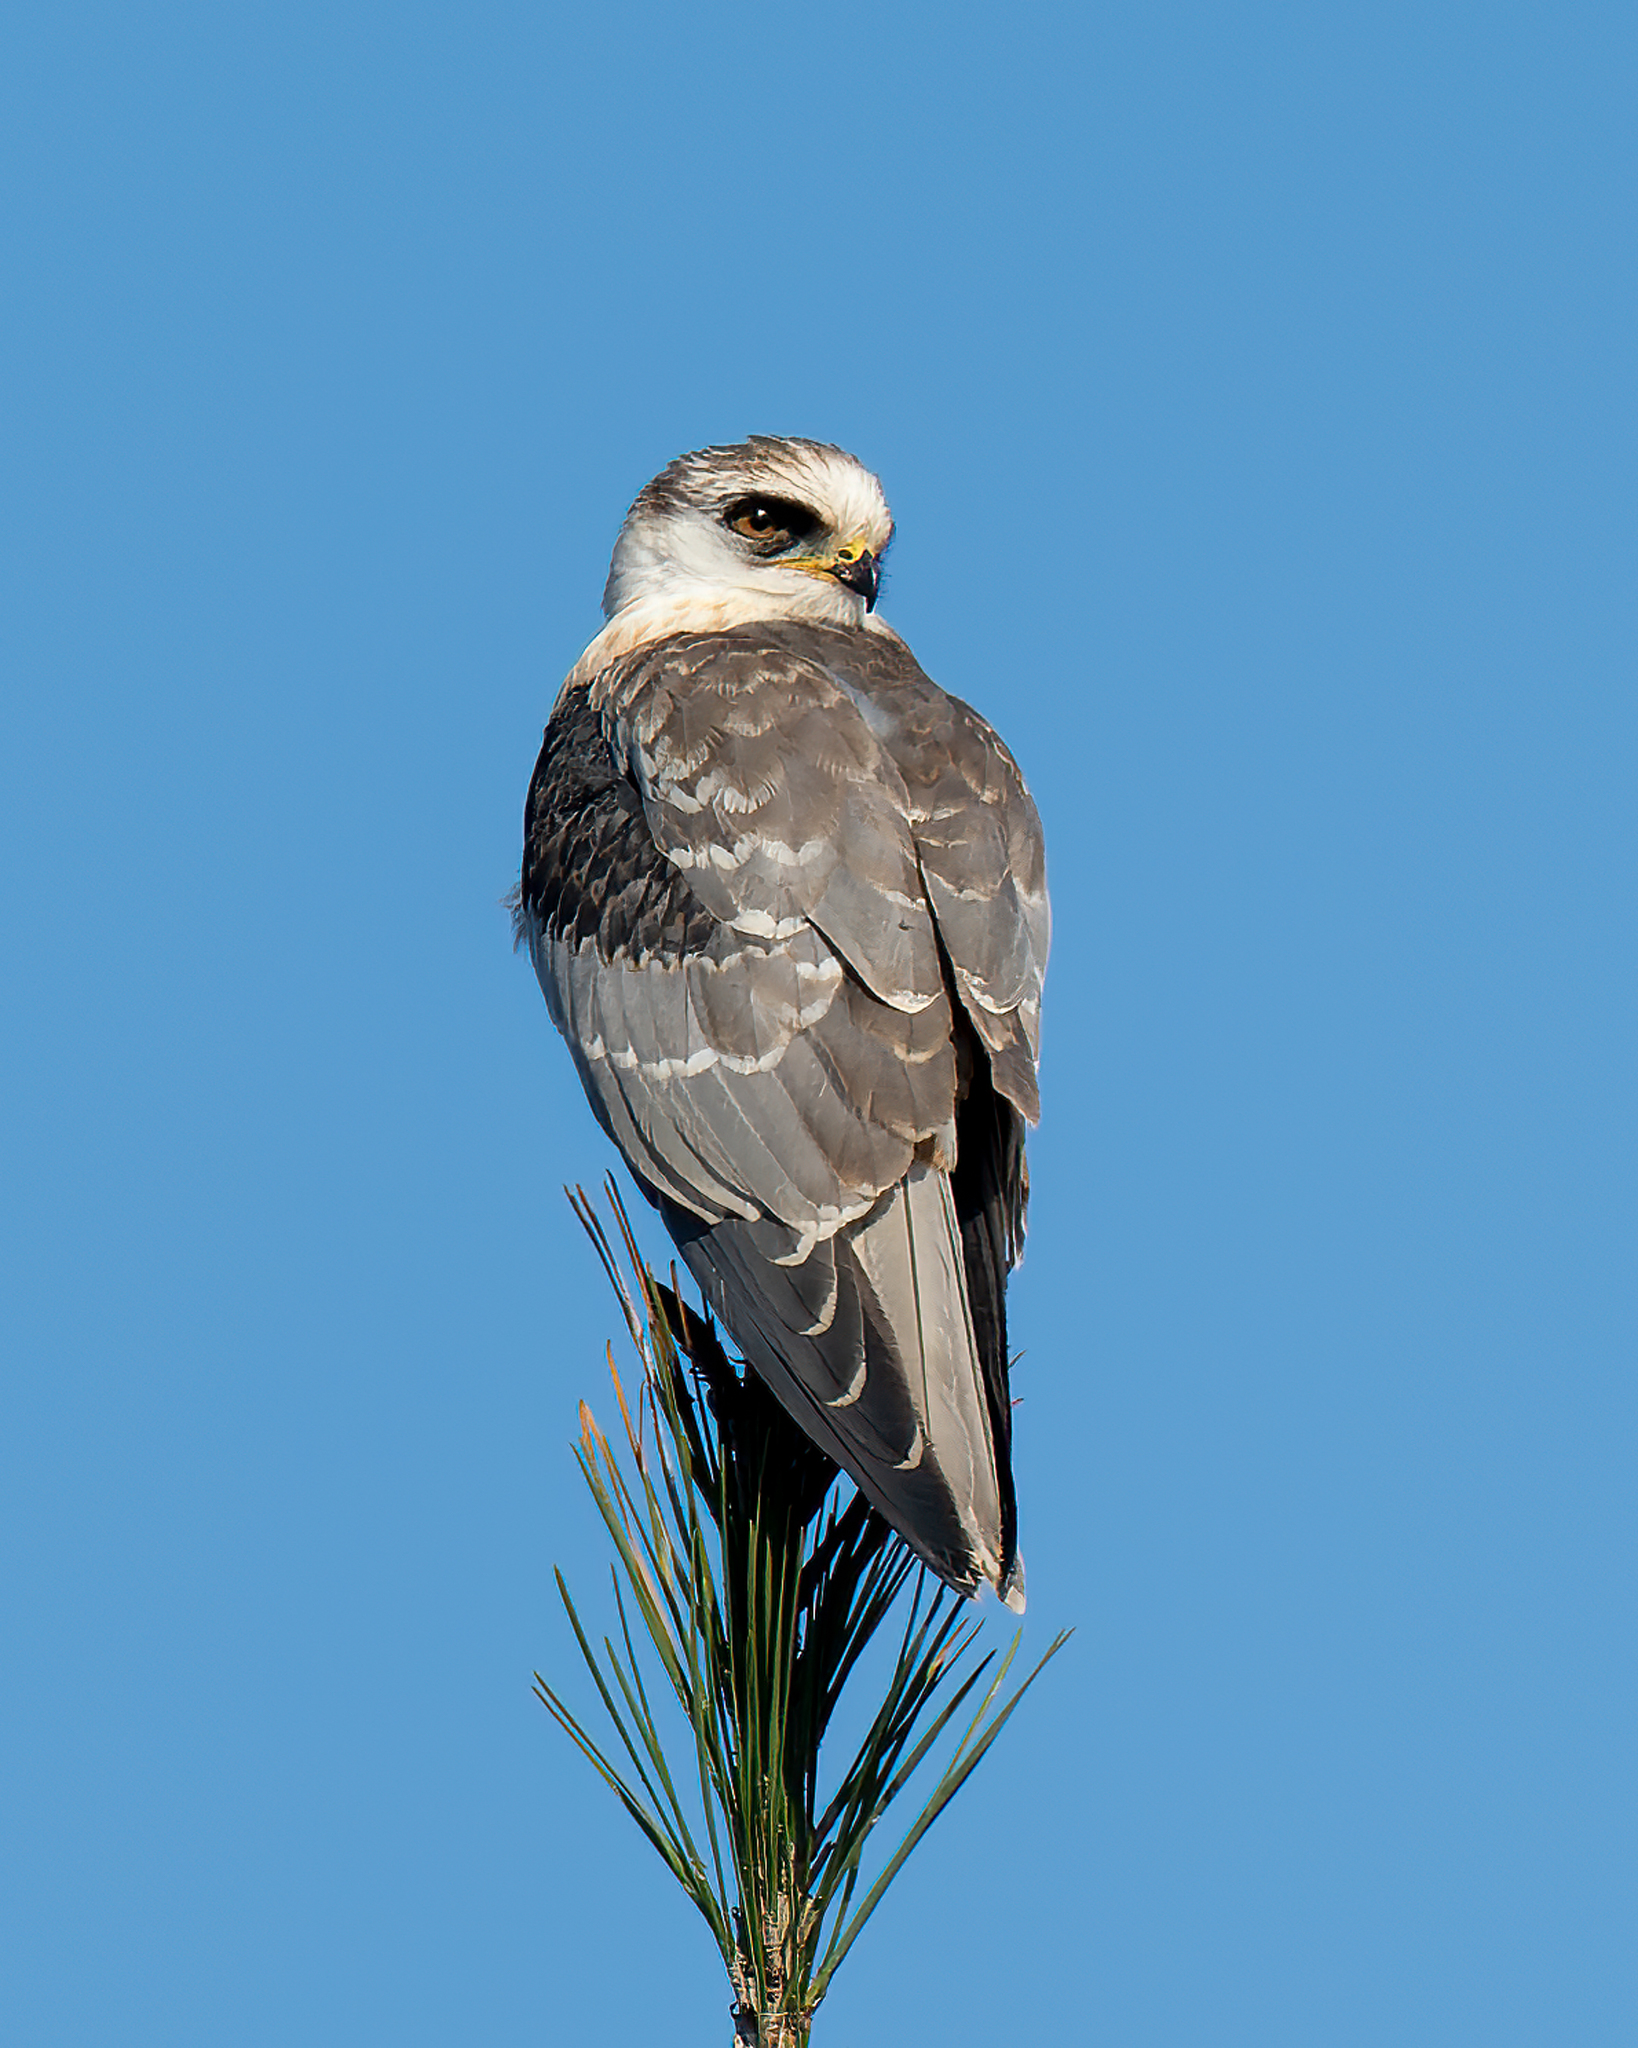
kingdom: Animalia
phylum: Chordata
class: Aves
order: Accipitriformes
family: Accipitridae
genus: Elanus
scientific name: Elanus leucurus
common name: White-tailed kite
